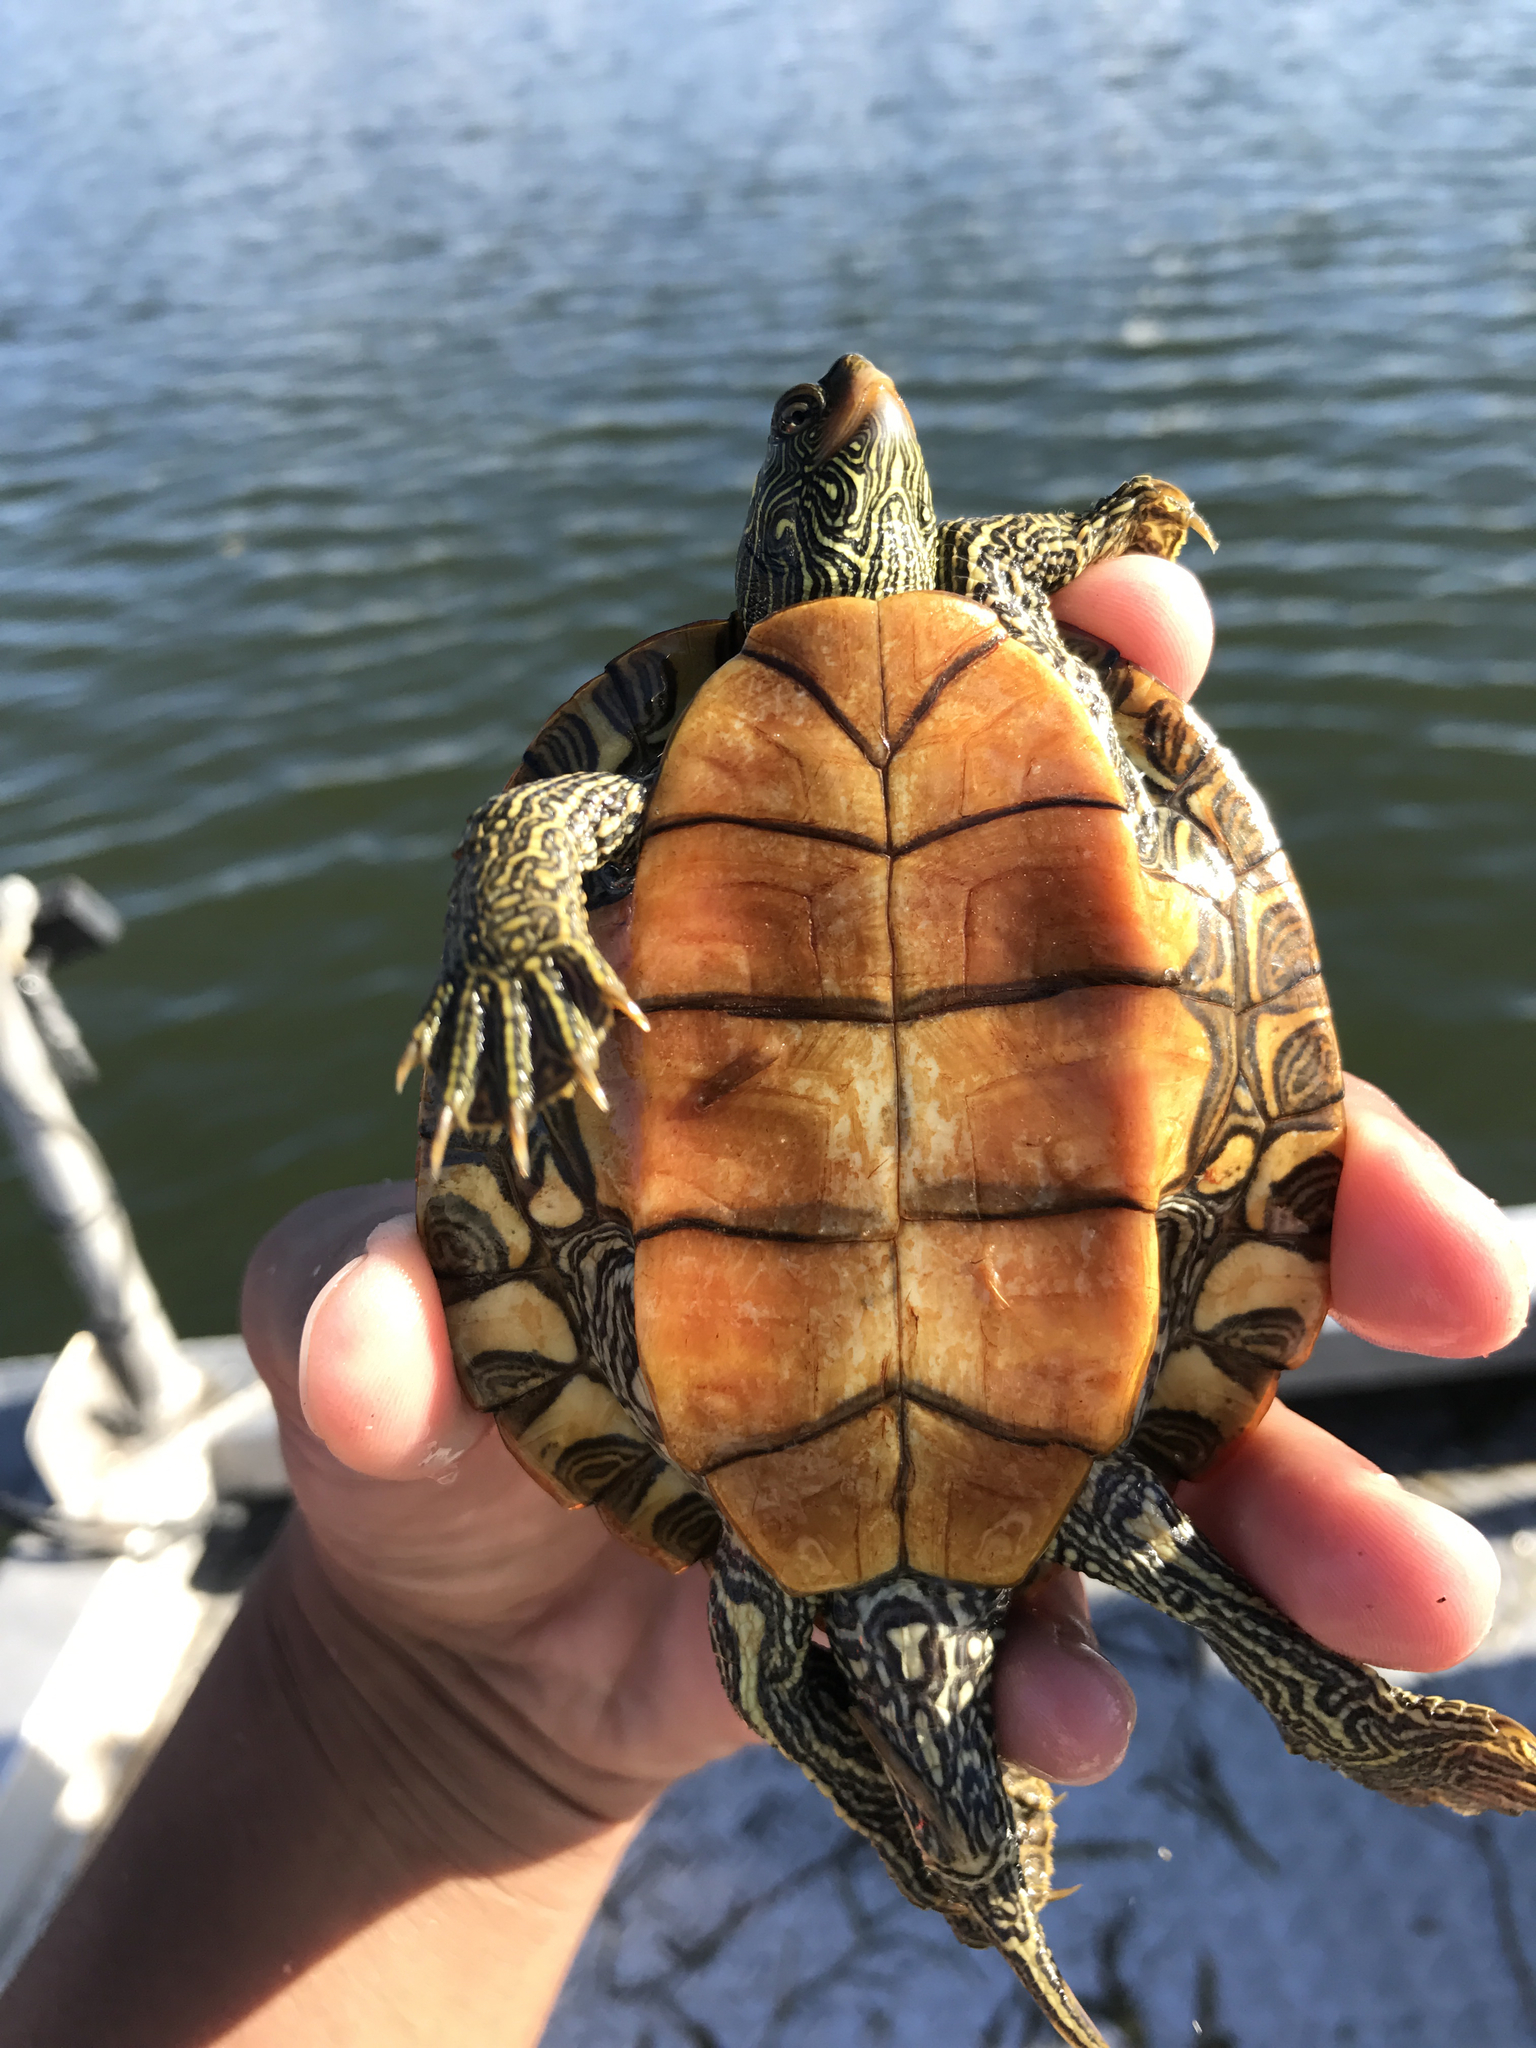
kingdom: Animalia
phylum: Chordata
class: Testudines
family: Emydidae
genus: Graptemys
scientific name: Graptemys geographica
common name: Common map turtle
